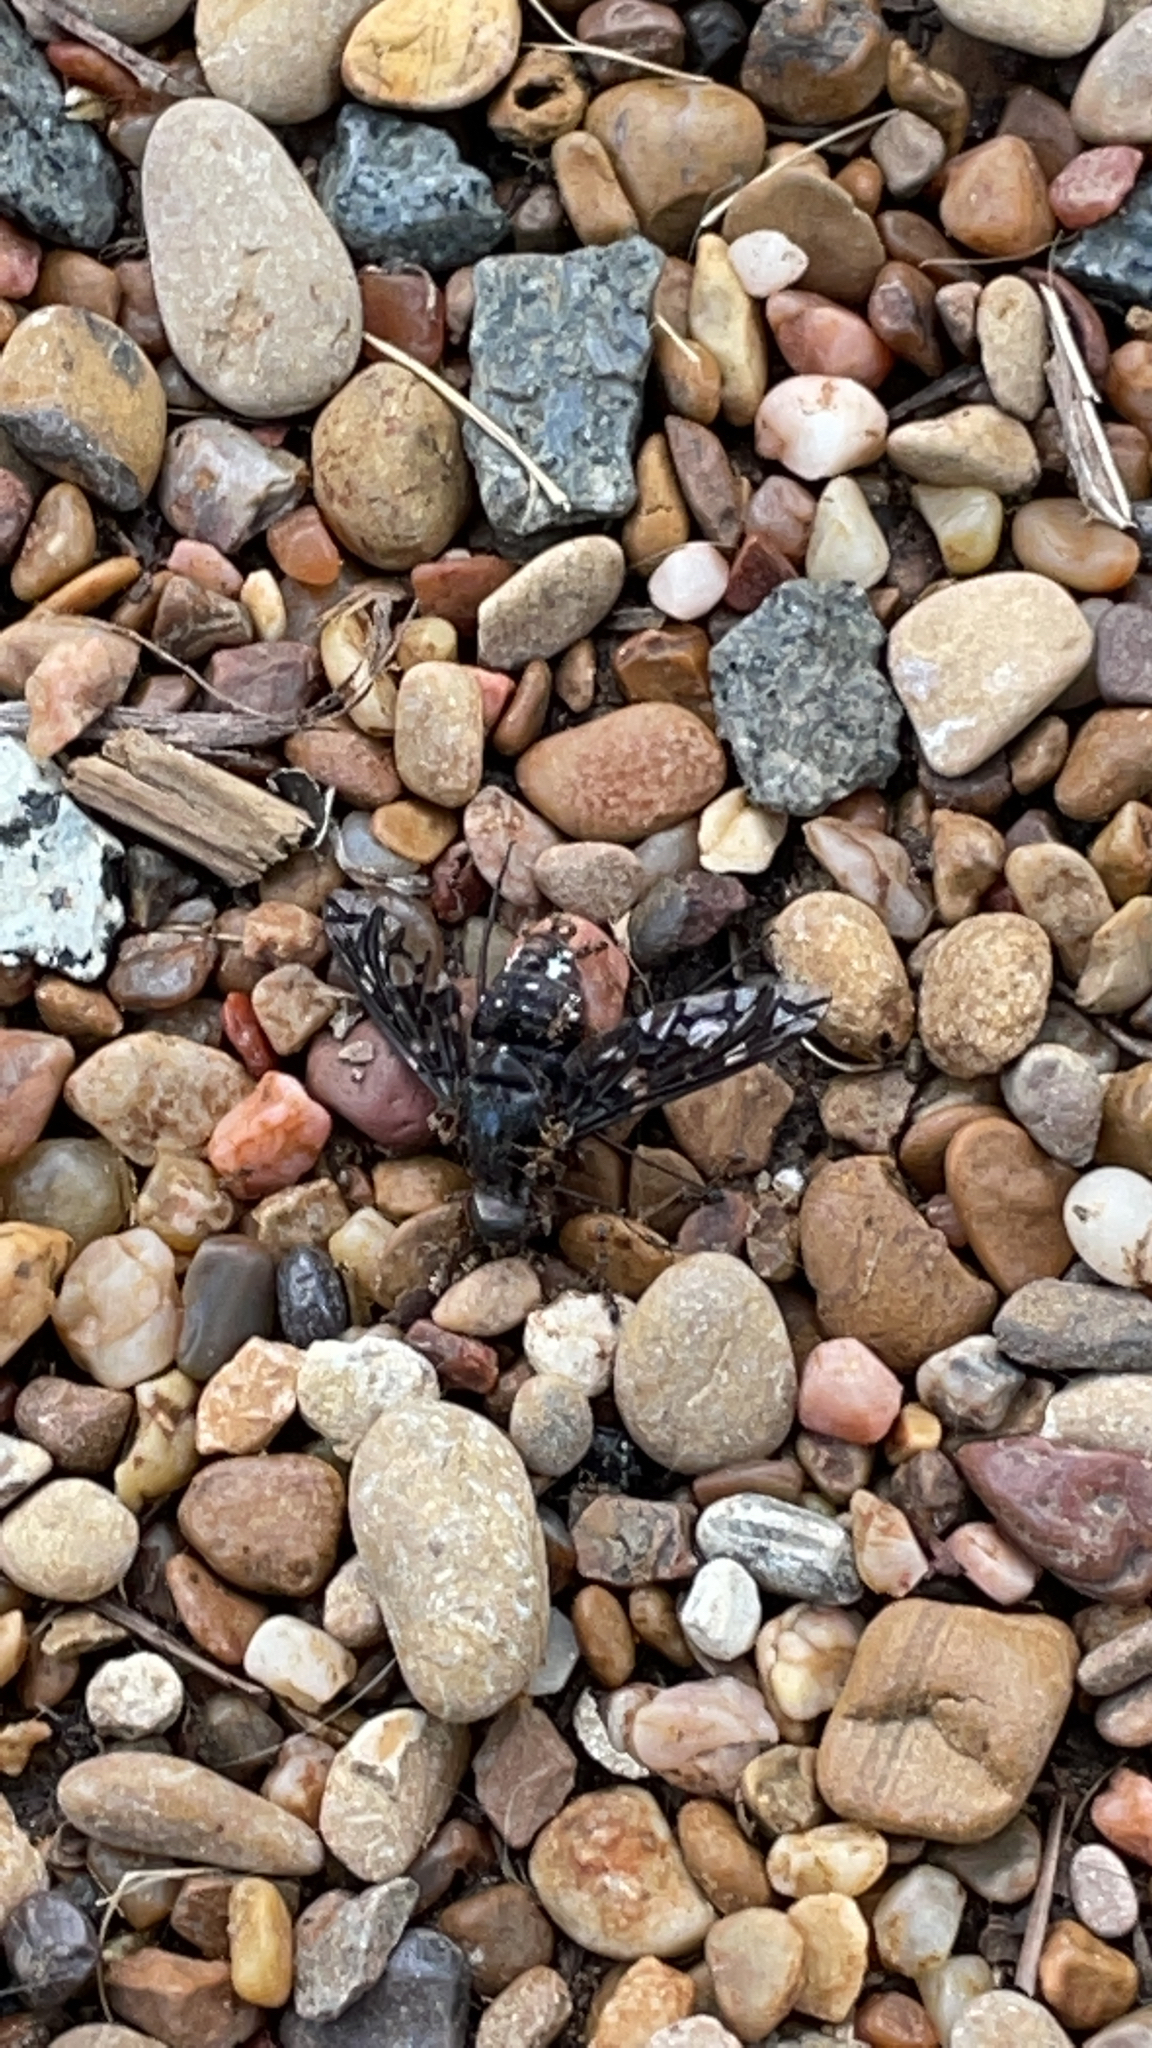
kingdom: Animalia
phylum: Arthropoda
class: Insecta
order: Diptera
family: Bombyliidae
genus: Xenox
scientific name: Xenox tigrinus
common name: Tiger bee fly
